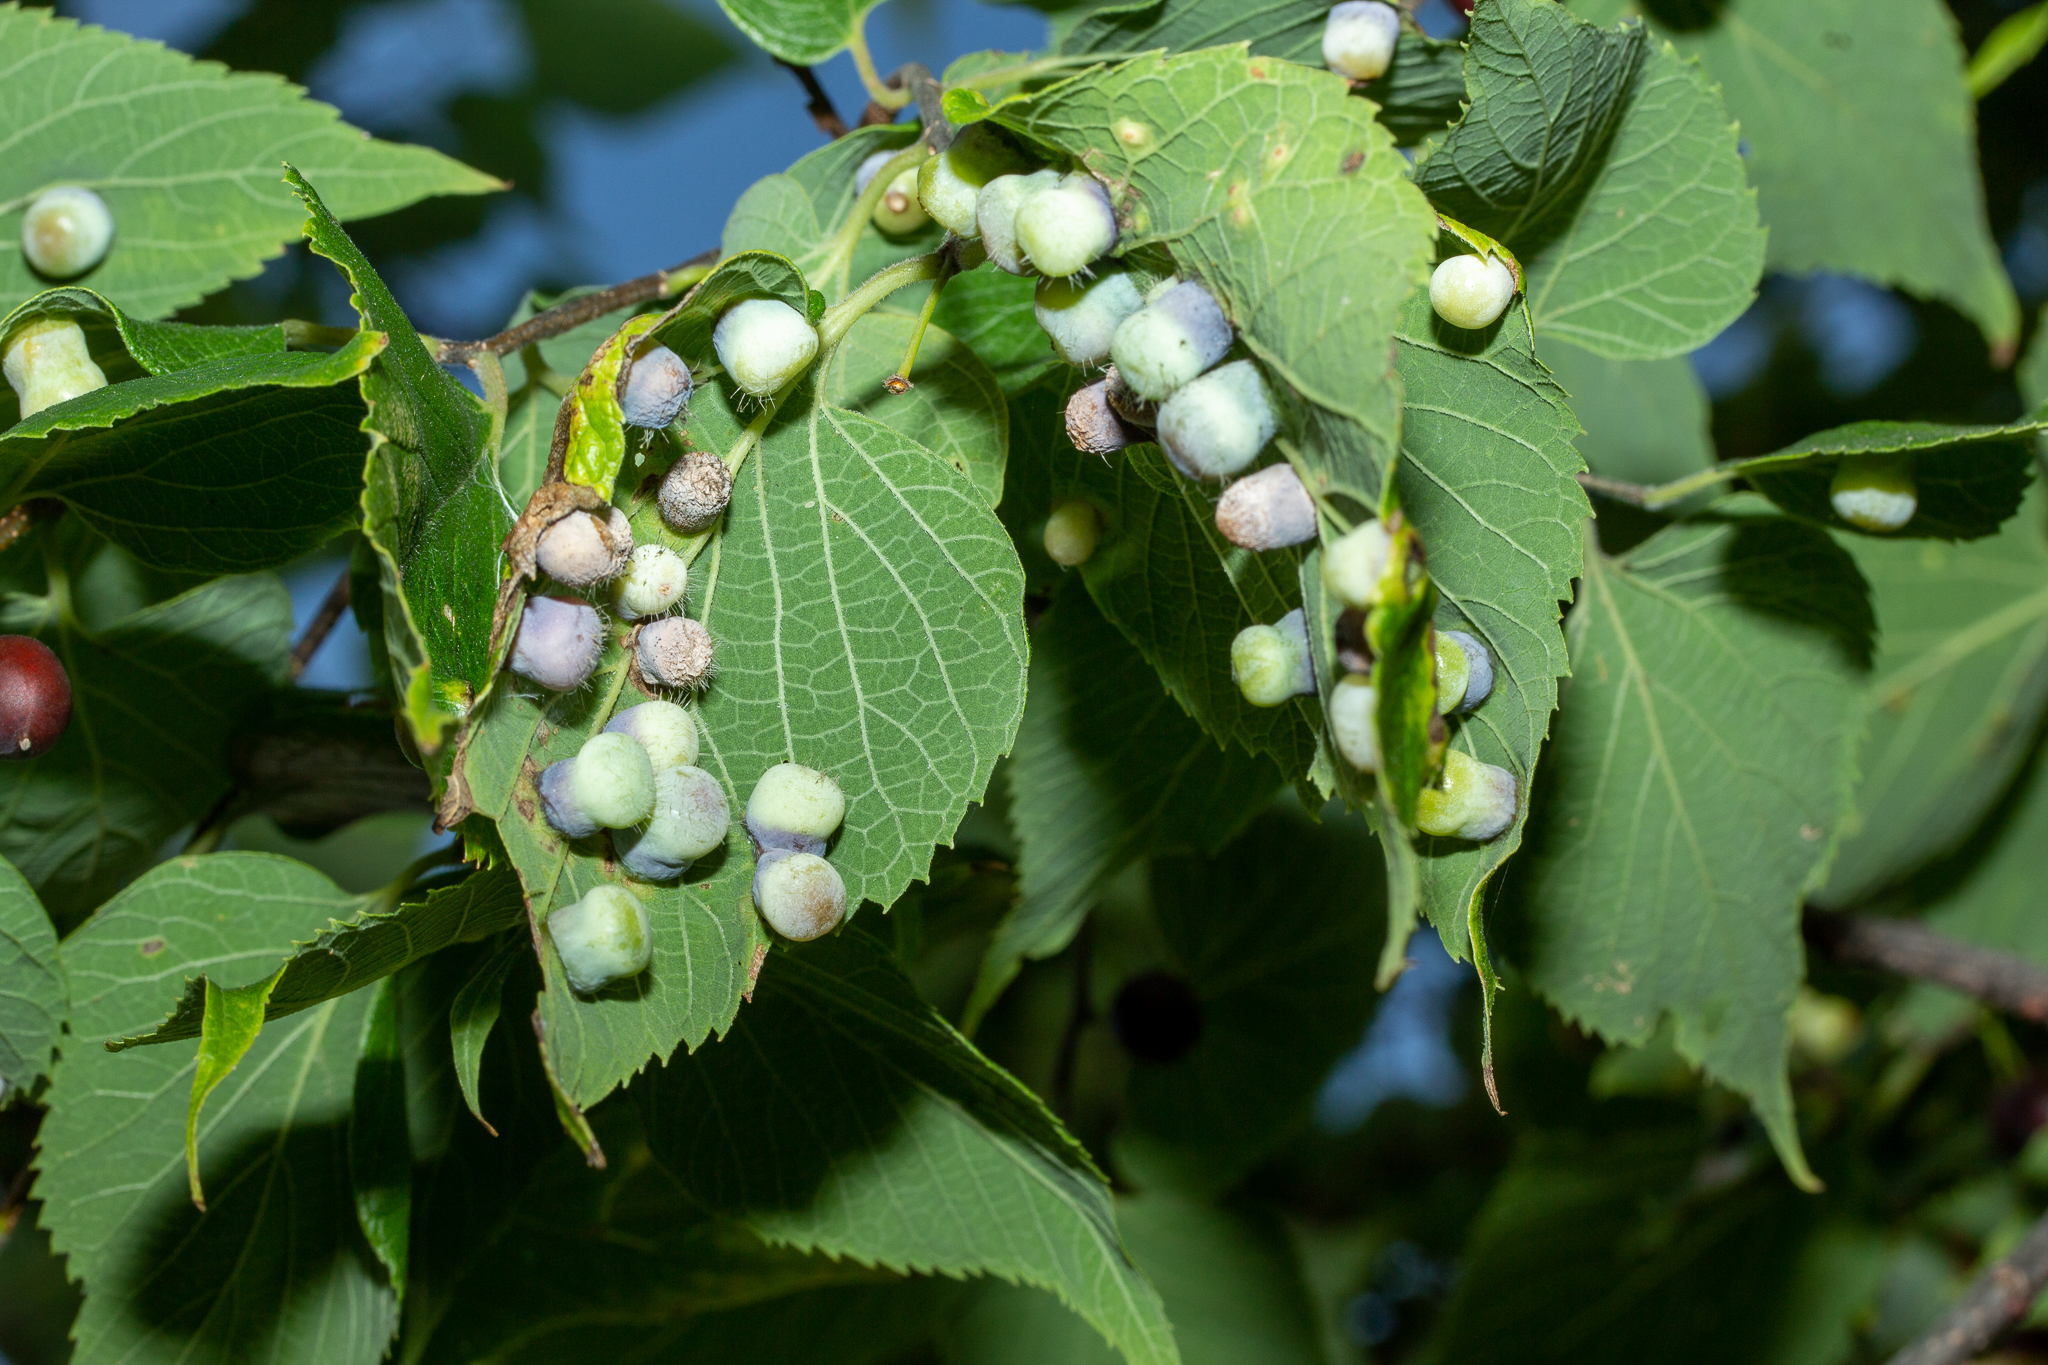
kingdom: Animalia
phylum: Arthropoda
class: Insecta
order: Hemiptera
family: Aphalaridae
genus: Pachypsylla
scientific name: Pachypsylla celtidismamma
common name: Hackberry nipplegall psyllid
